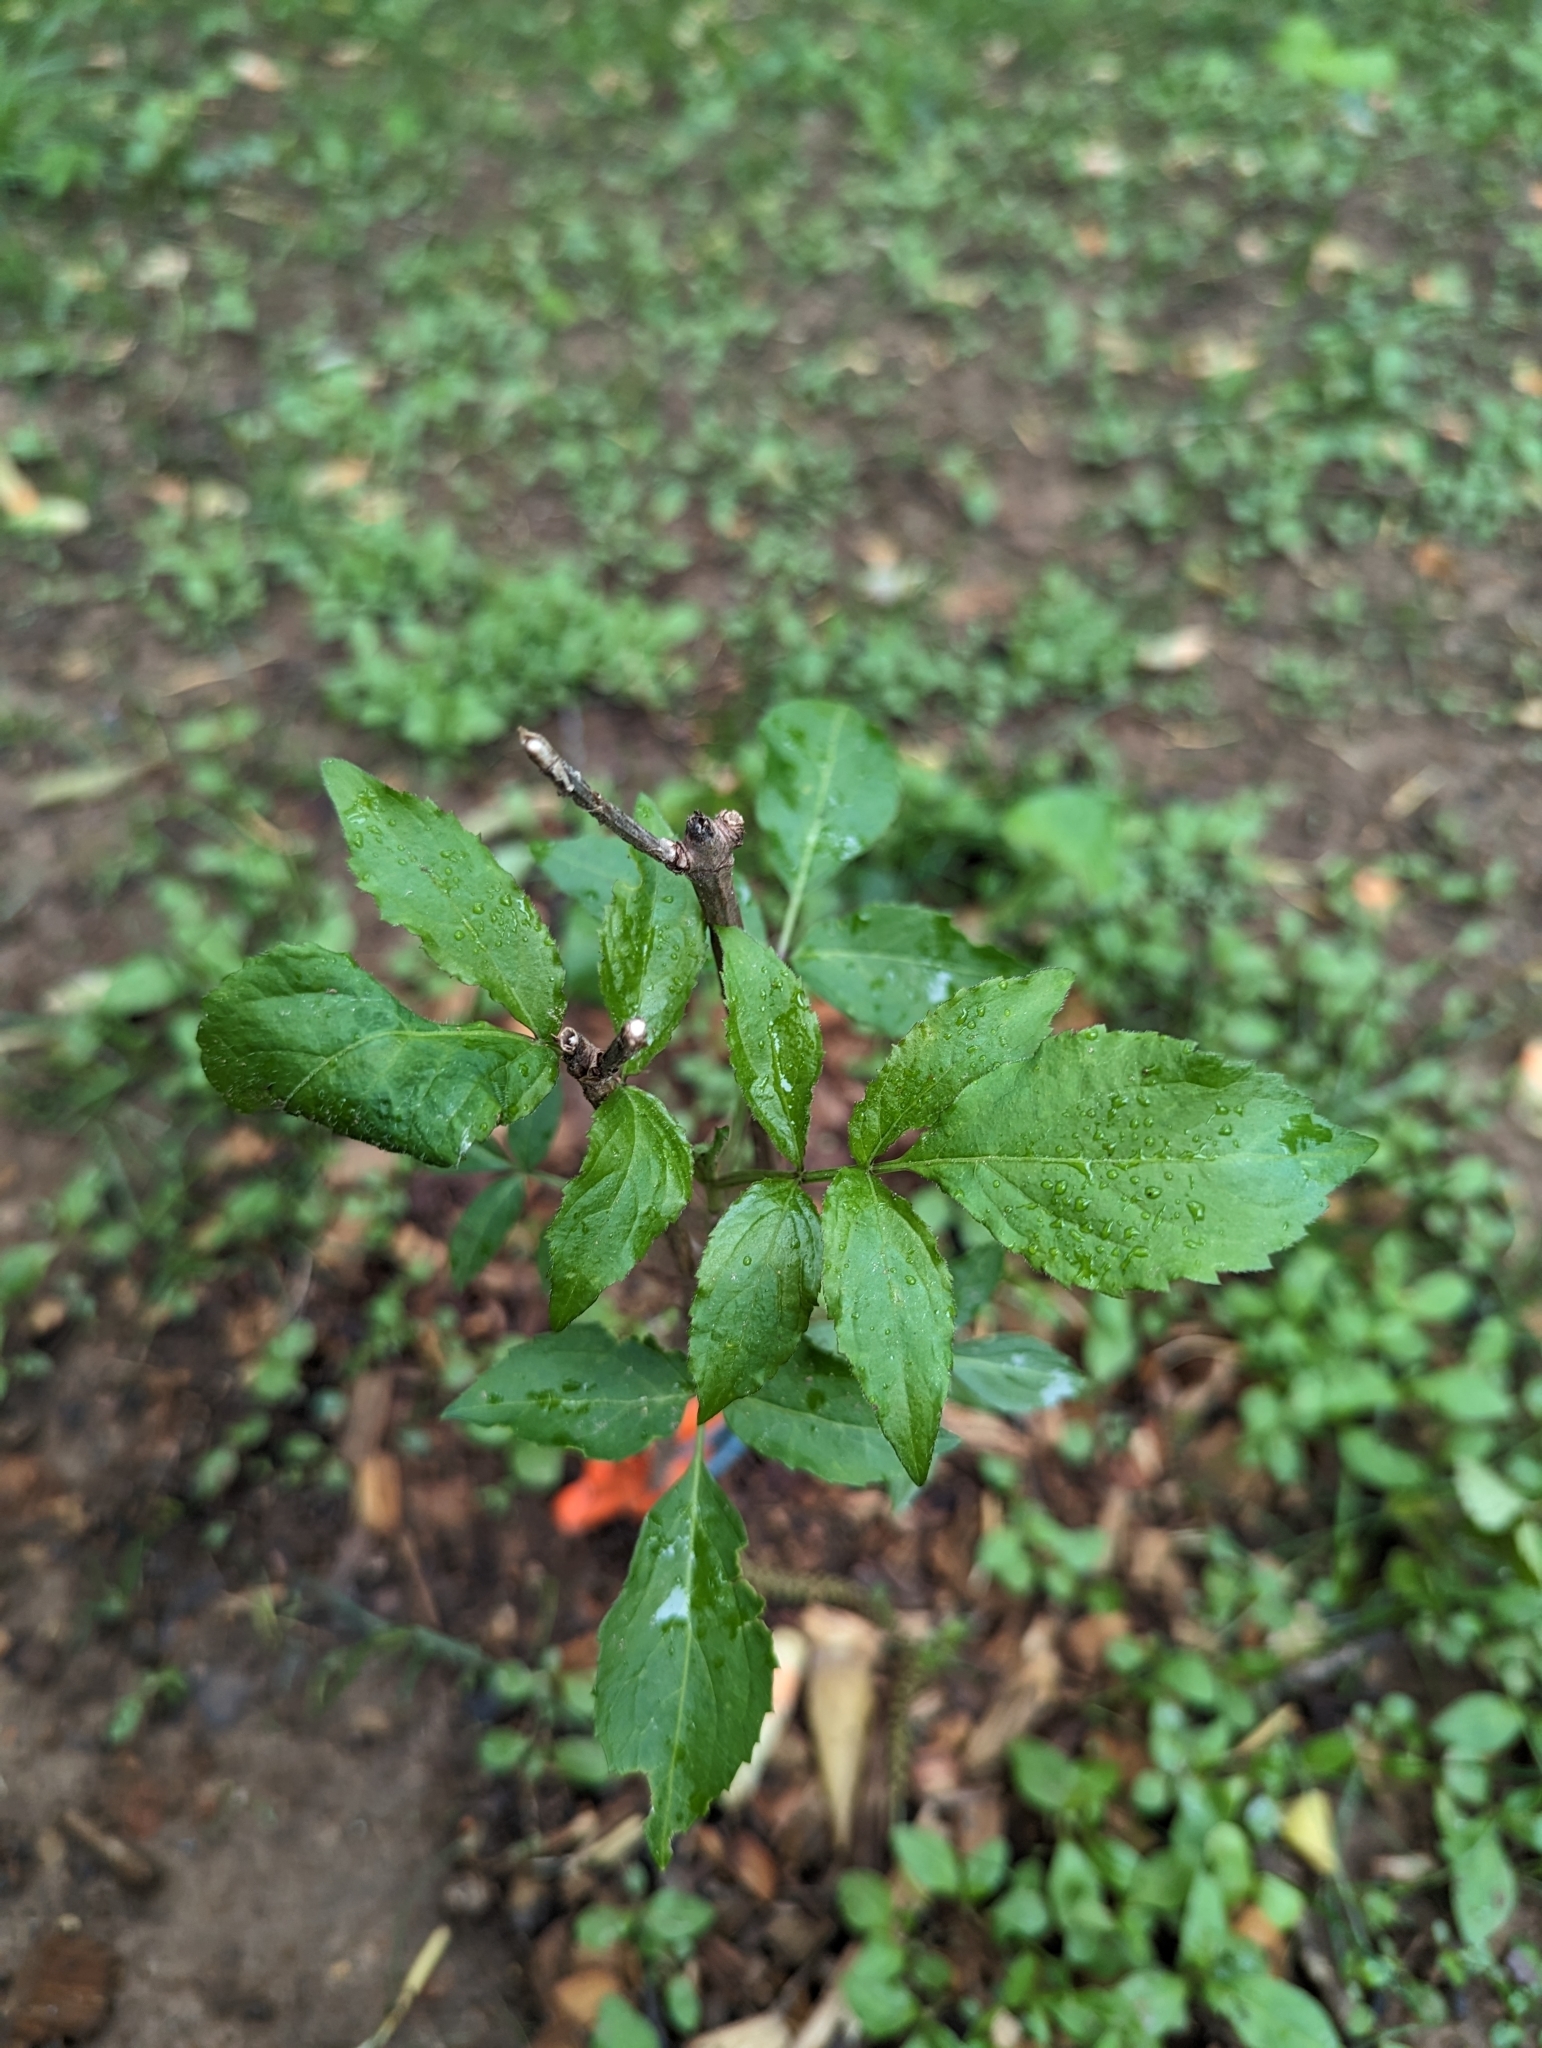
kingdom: Plantae
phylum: Tracheophyta
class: Magnoliopsida
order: Dipsacales
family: Viburnaceae
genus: Sambucus
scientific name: Sambucus canadensis
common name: American elder
